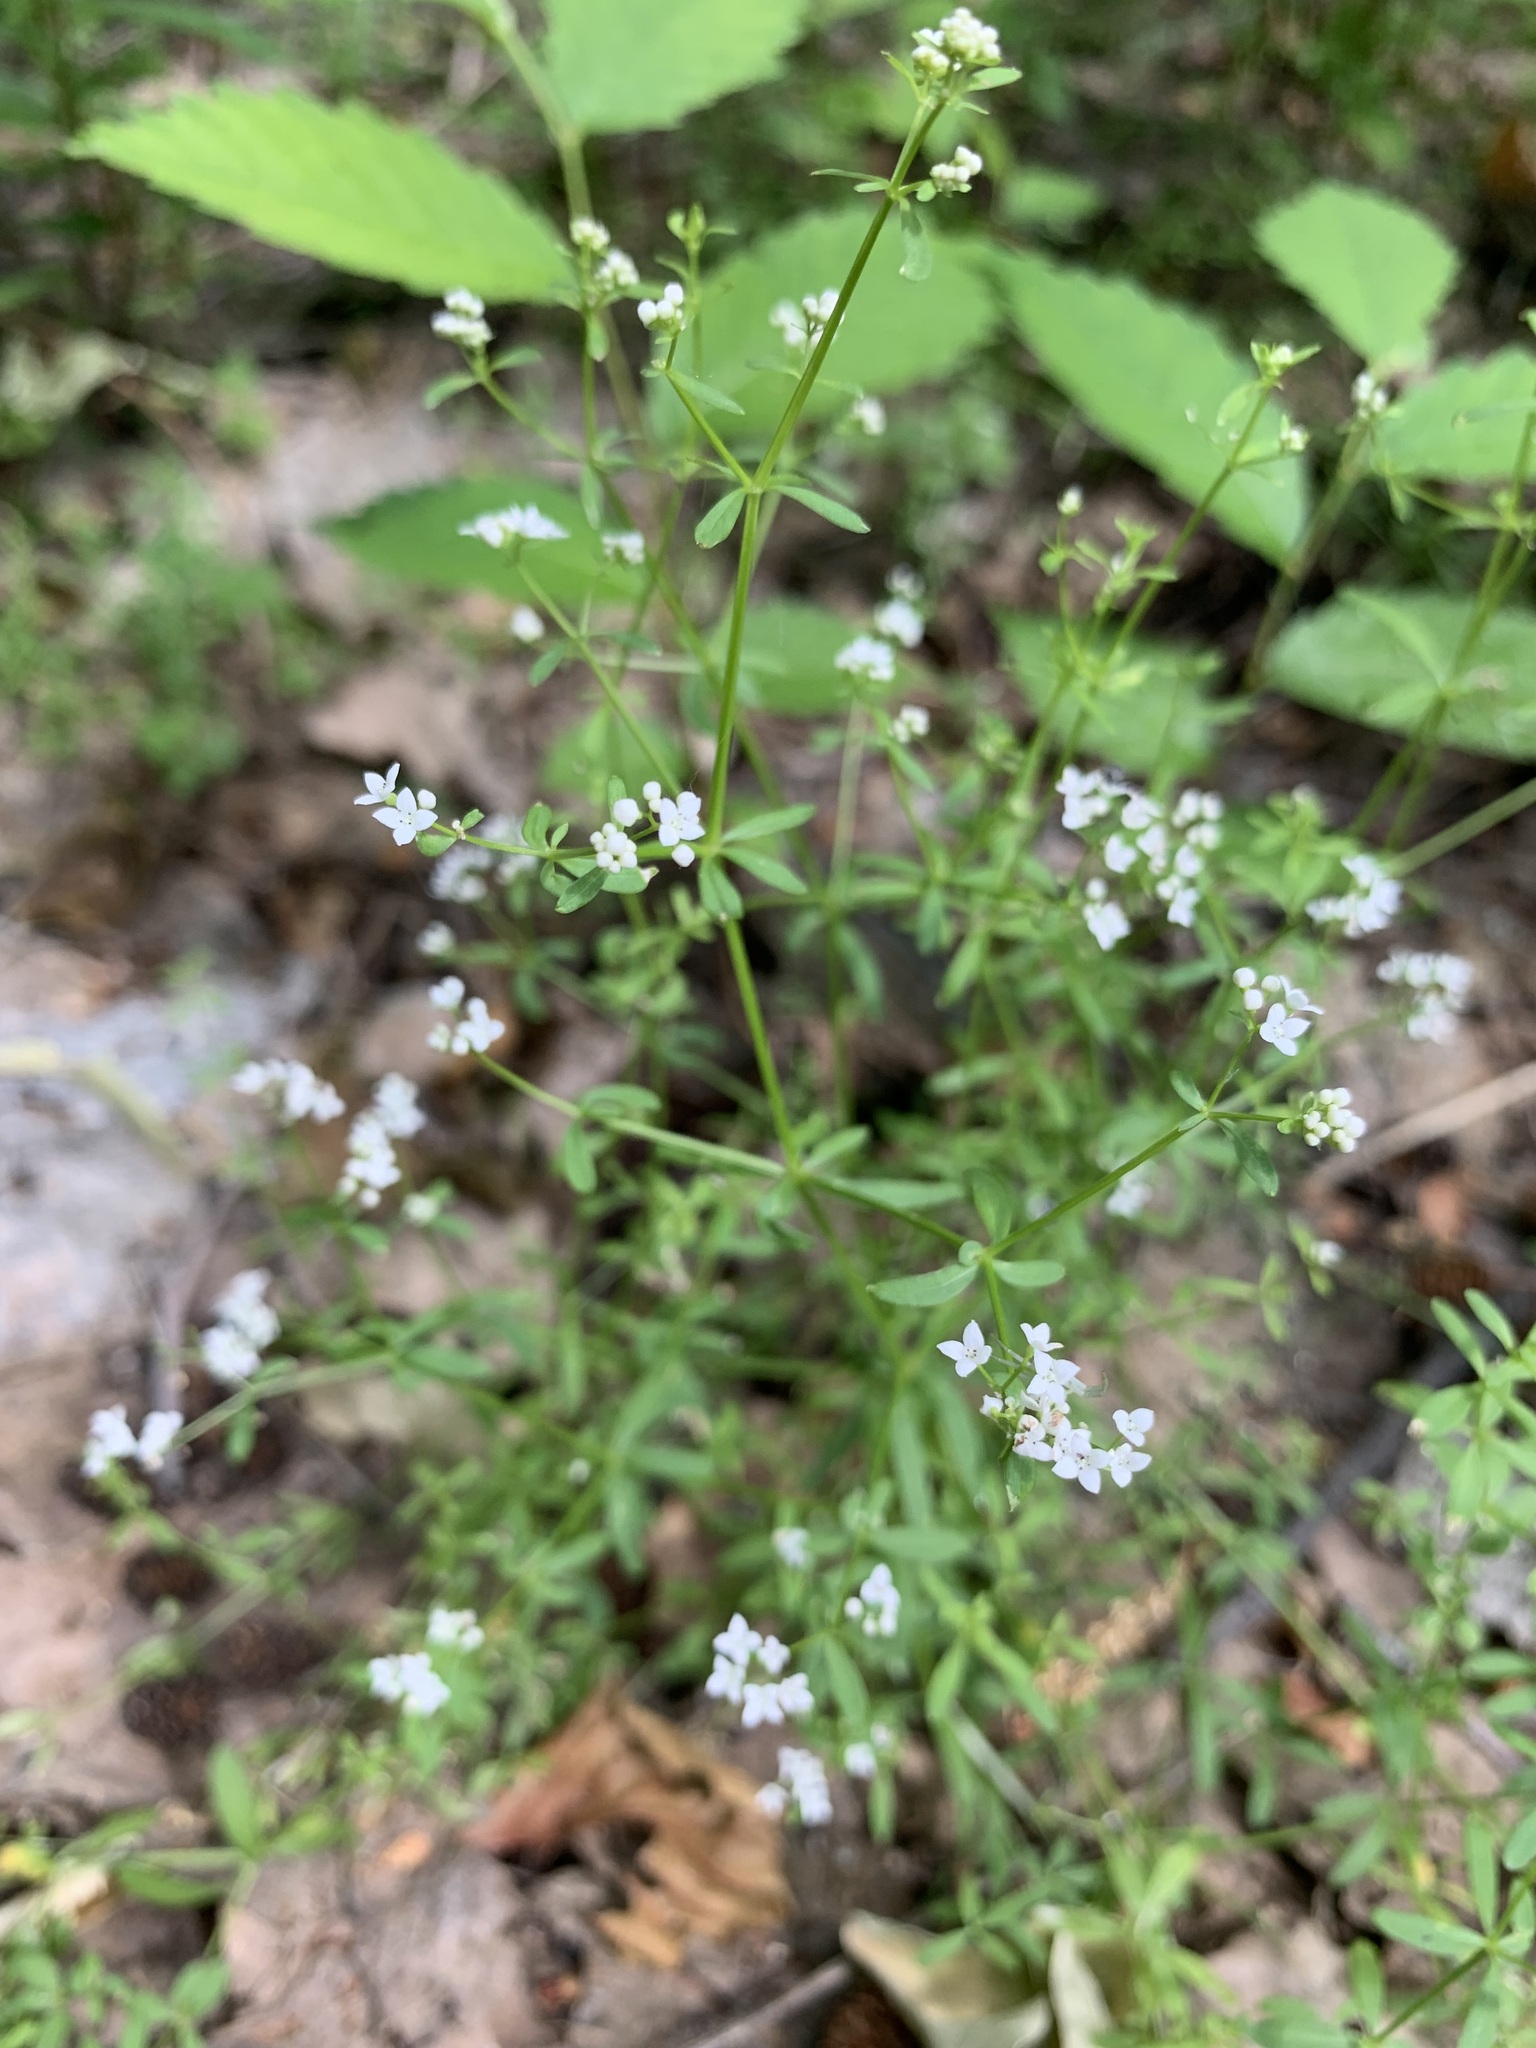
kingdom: Plantae
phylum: Tracheophyta
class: Magnoliopsida
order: Gentianales
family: Rubiaceae
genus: Galium
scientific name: Galium palustre
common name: Common marsh-bedstraw
